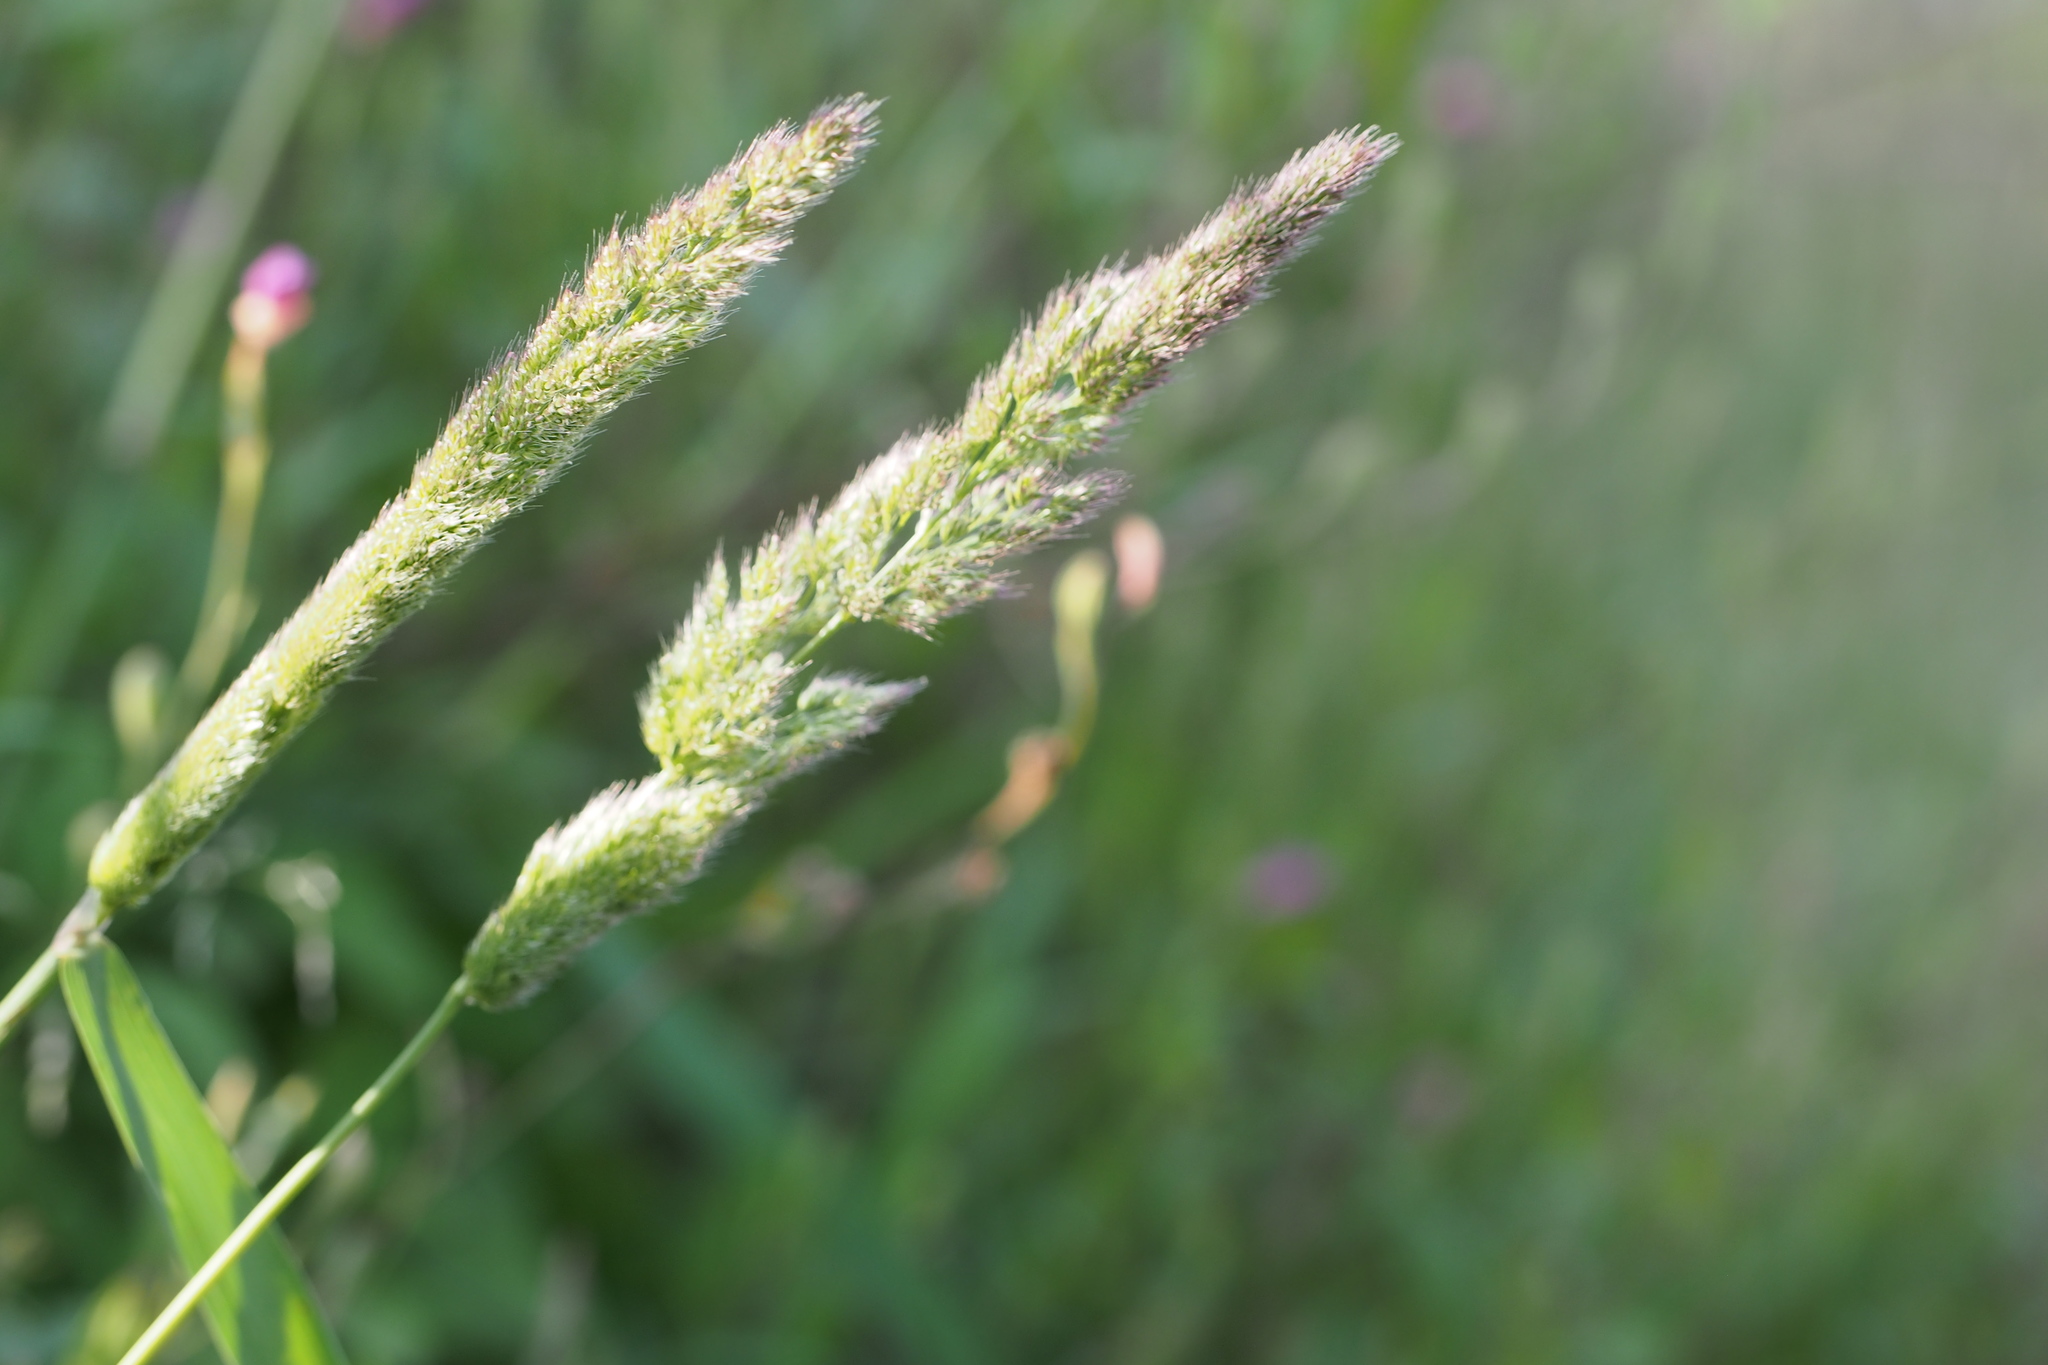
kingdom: Plantae
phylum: Tracheophyta
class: Liliopsida
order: Poales
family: Poaceae
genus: Polypogon
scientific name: Polypogon fugax
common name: Asia minor bluegrass
